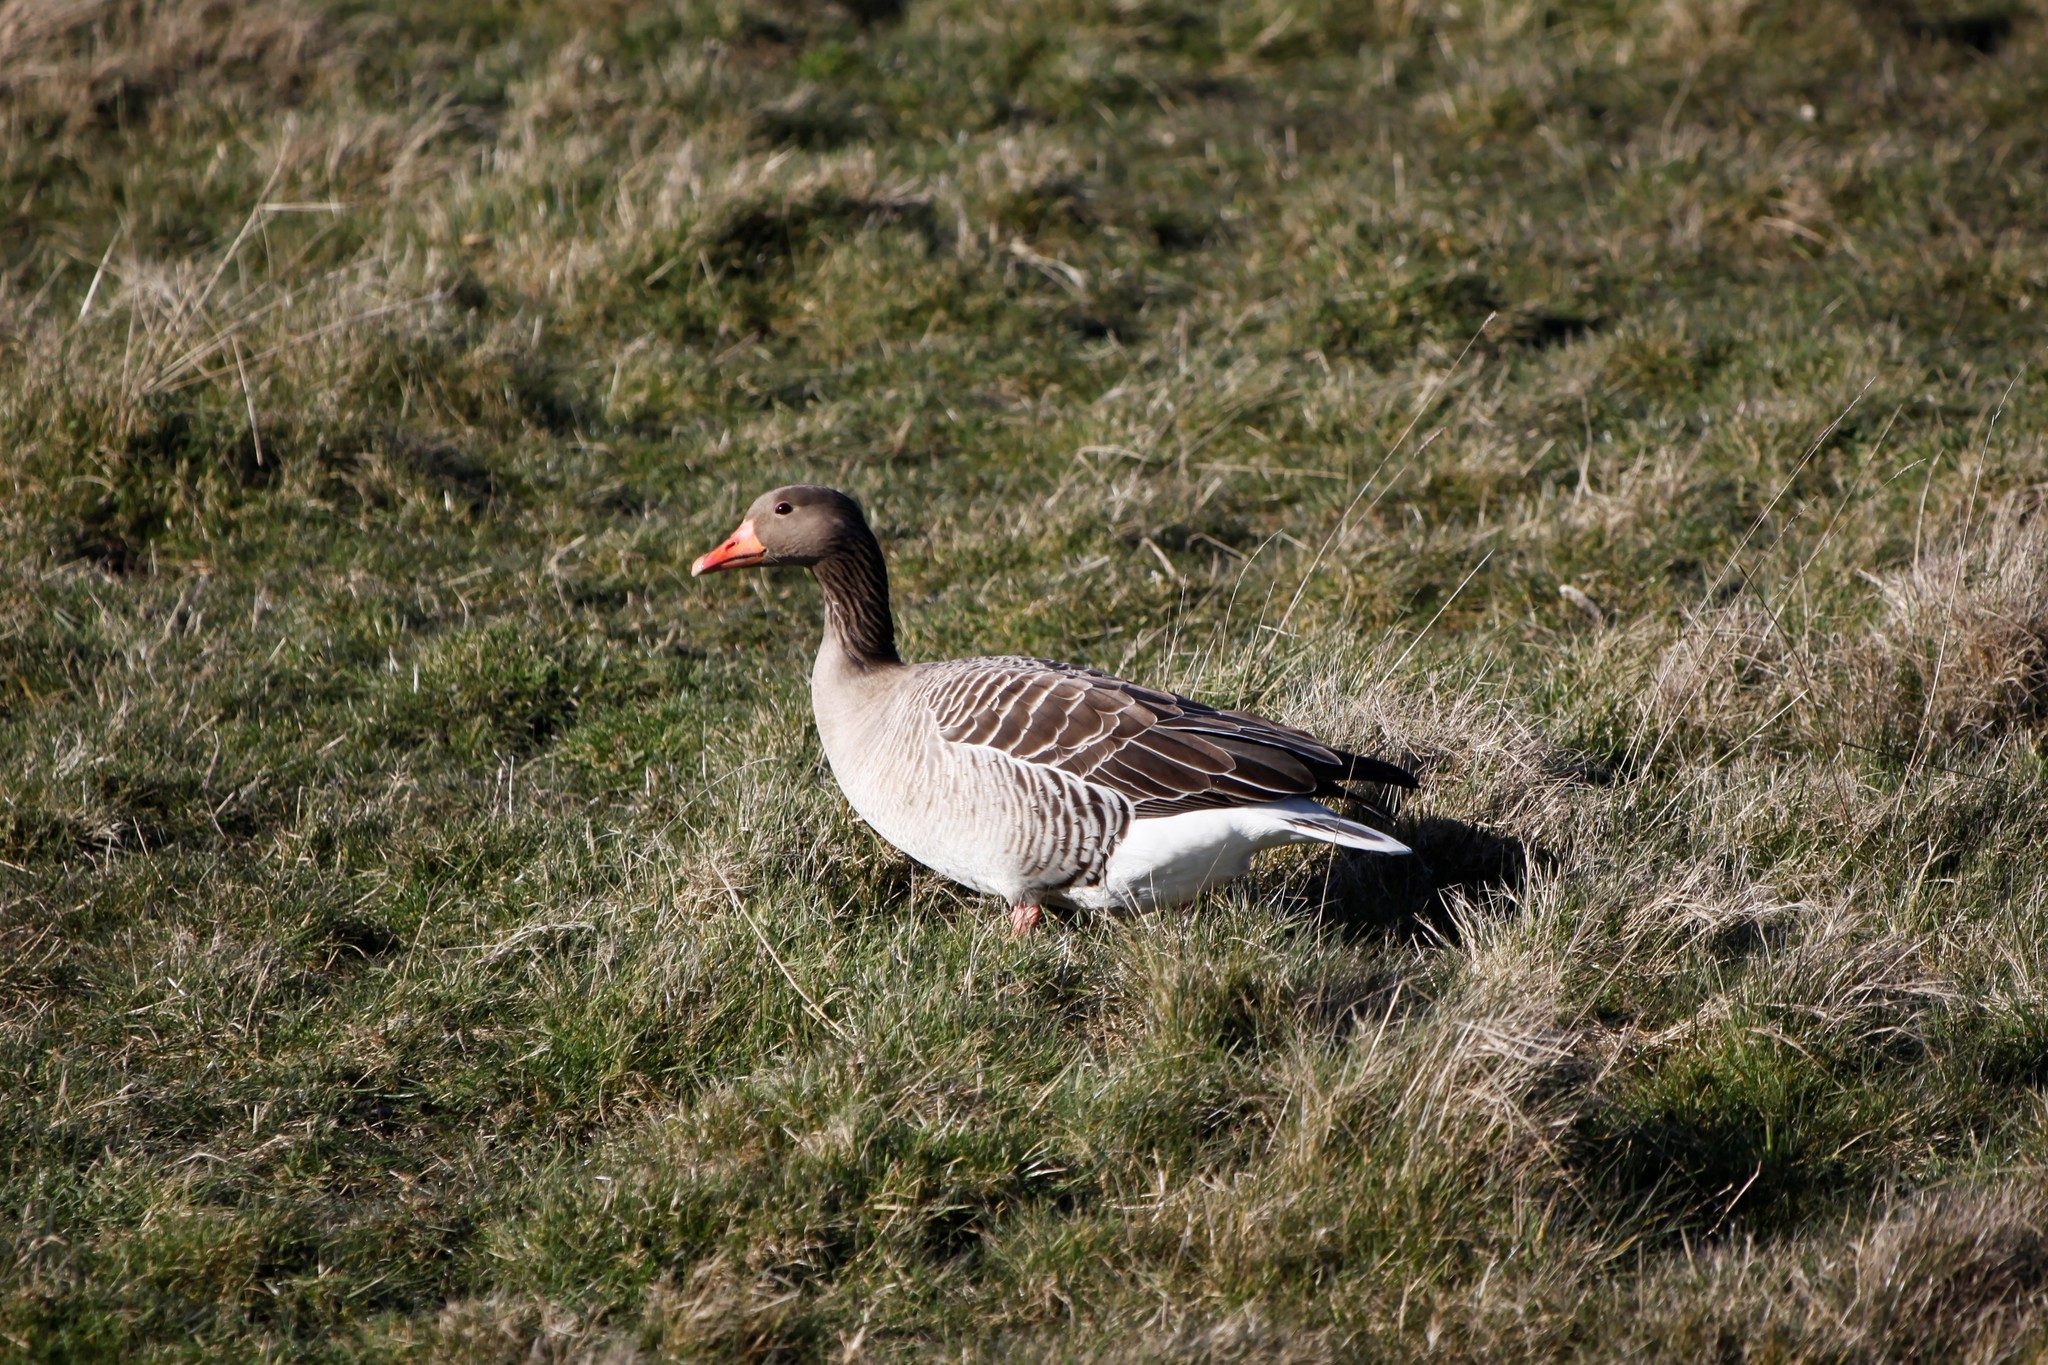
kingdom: Animalia
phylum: Chordata
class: Aves
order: Anseriformes
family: Anatidae
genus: Anser
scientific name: Anser anser
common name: Greylag goose
